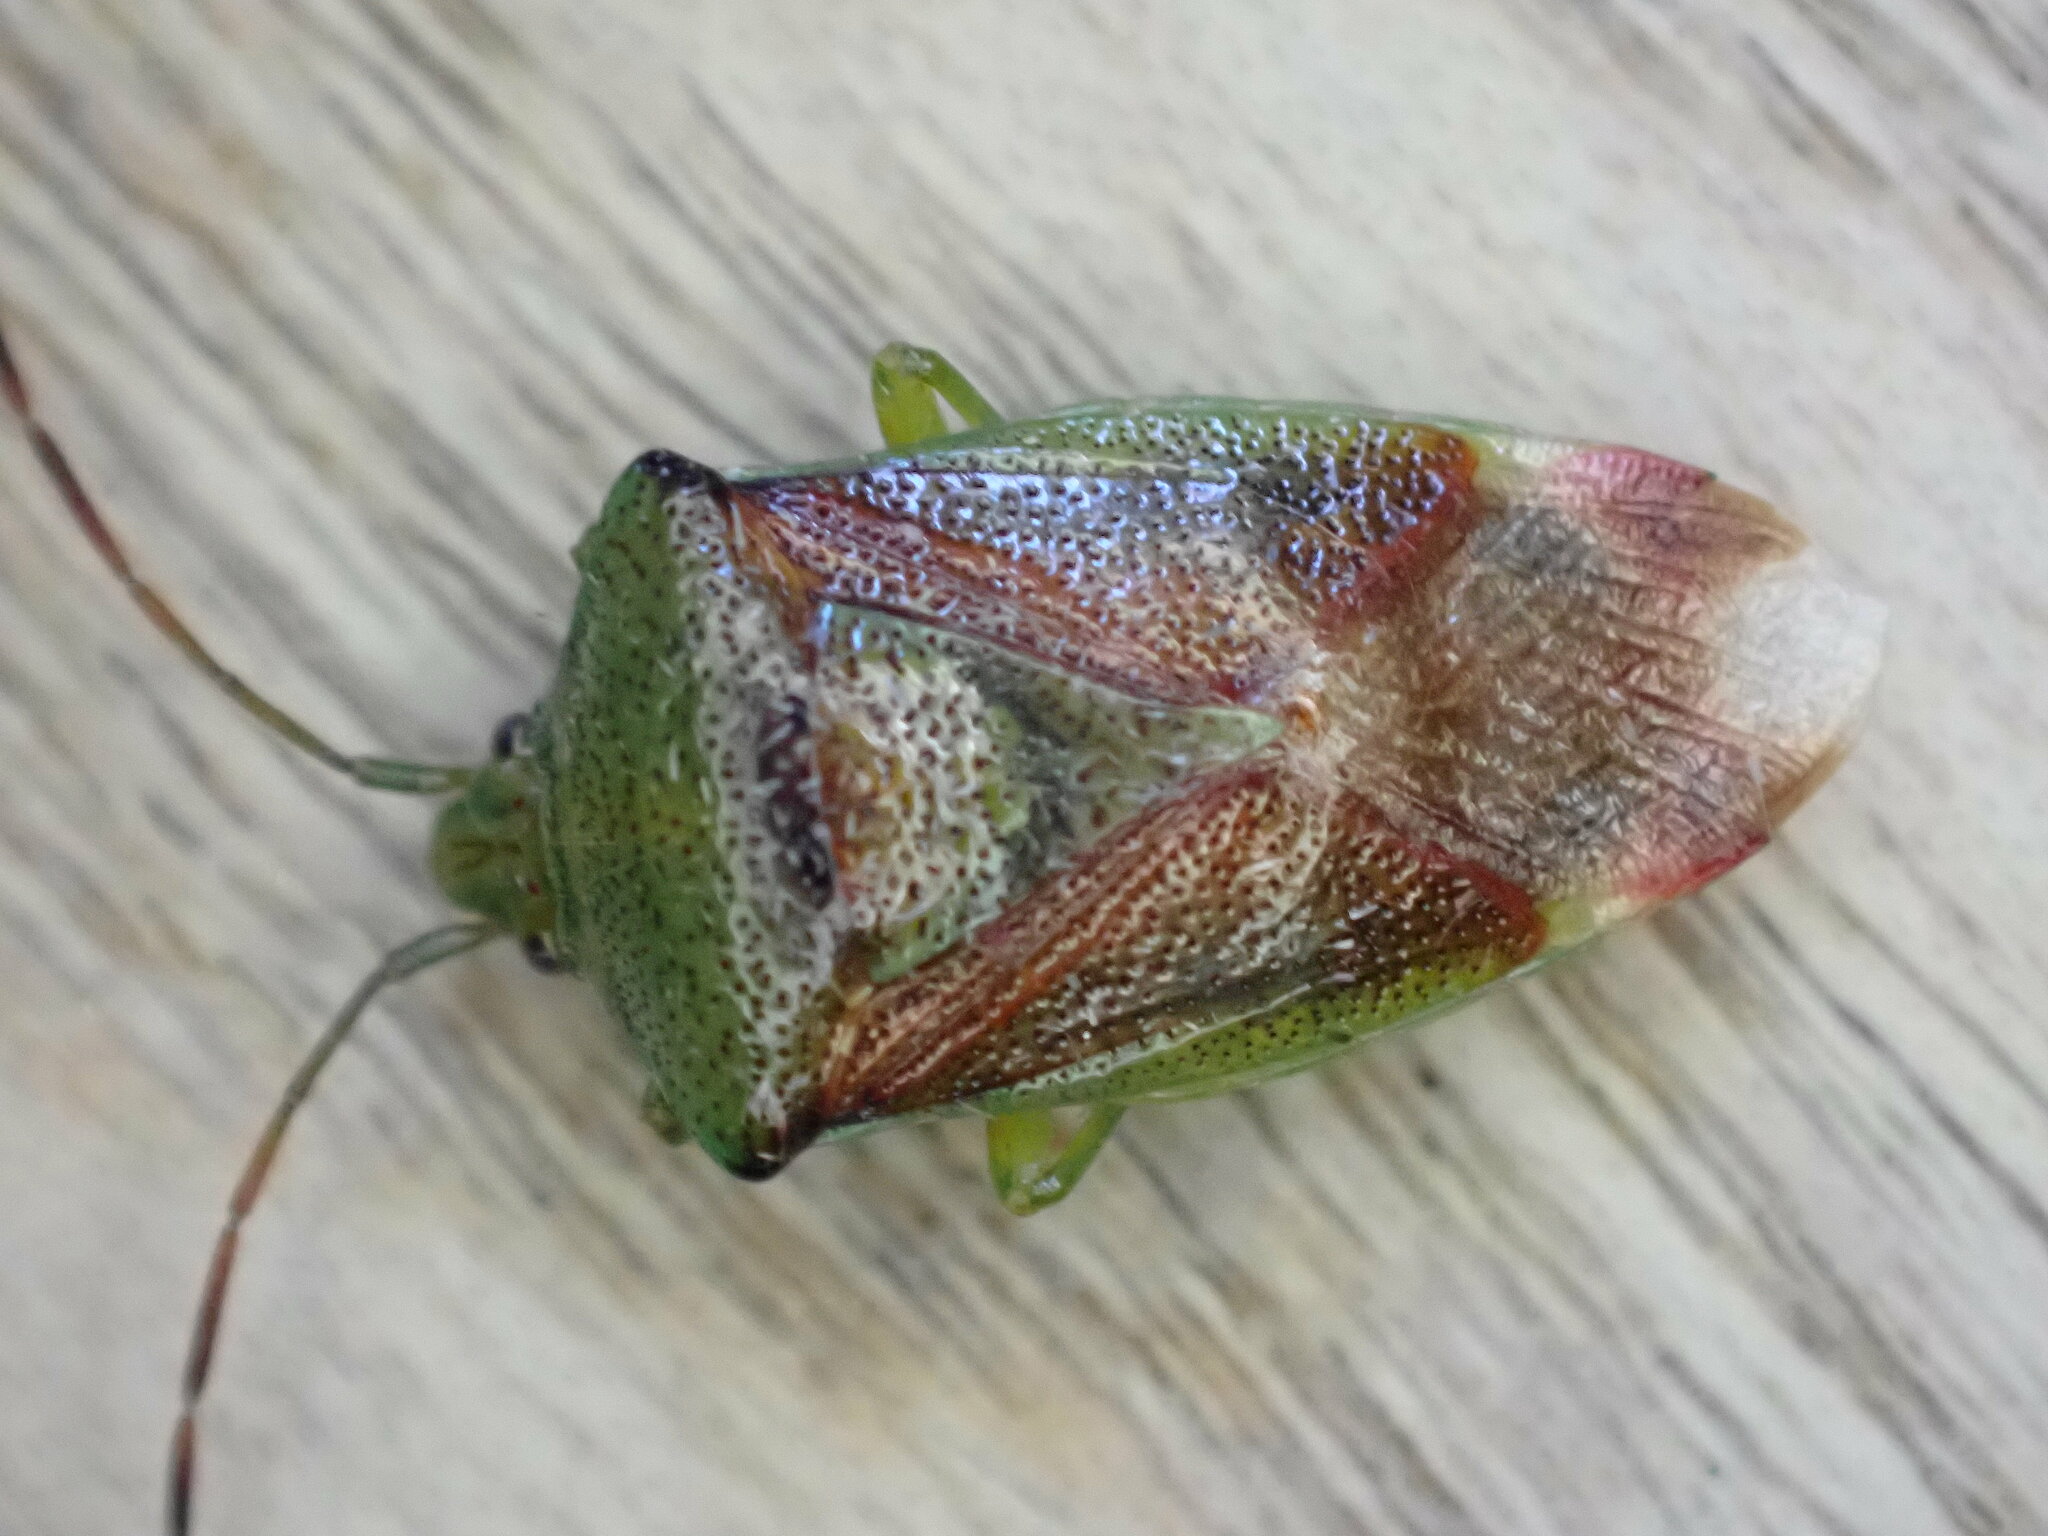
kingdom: Animalia
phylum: Arthropoda
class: Insecta
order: Hemiptera
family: Acanthosomatidae
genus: Elasmostethus
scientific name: Elasmostethus interstinctus
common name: Birch shieldbug
